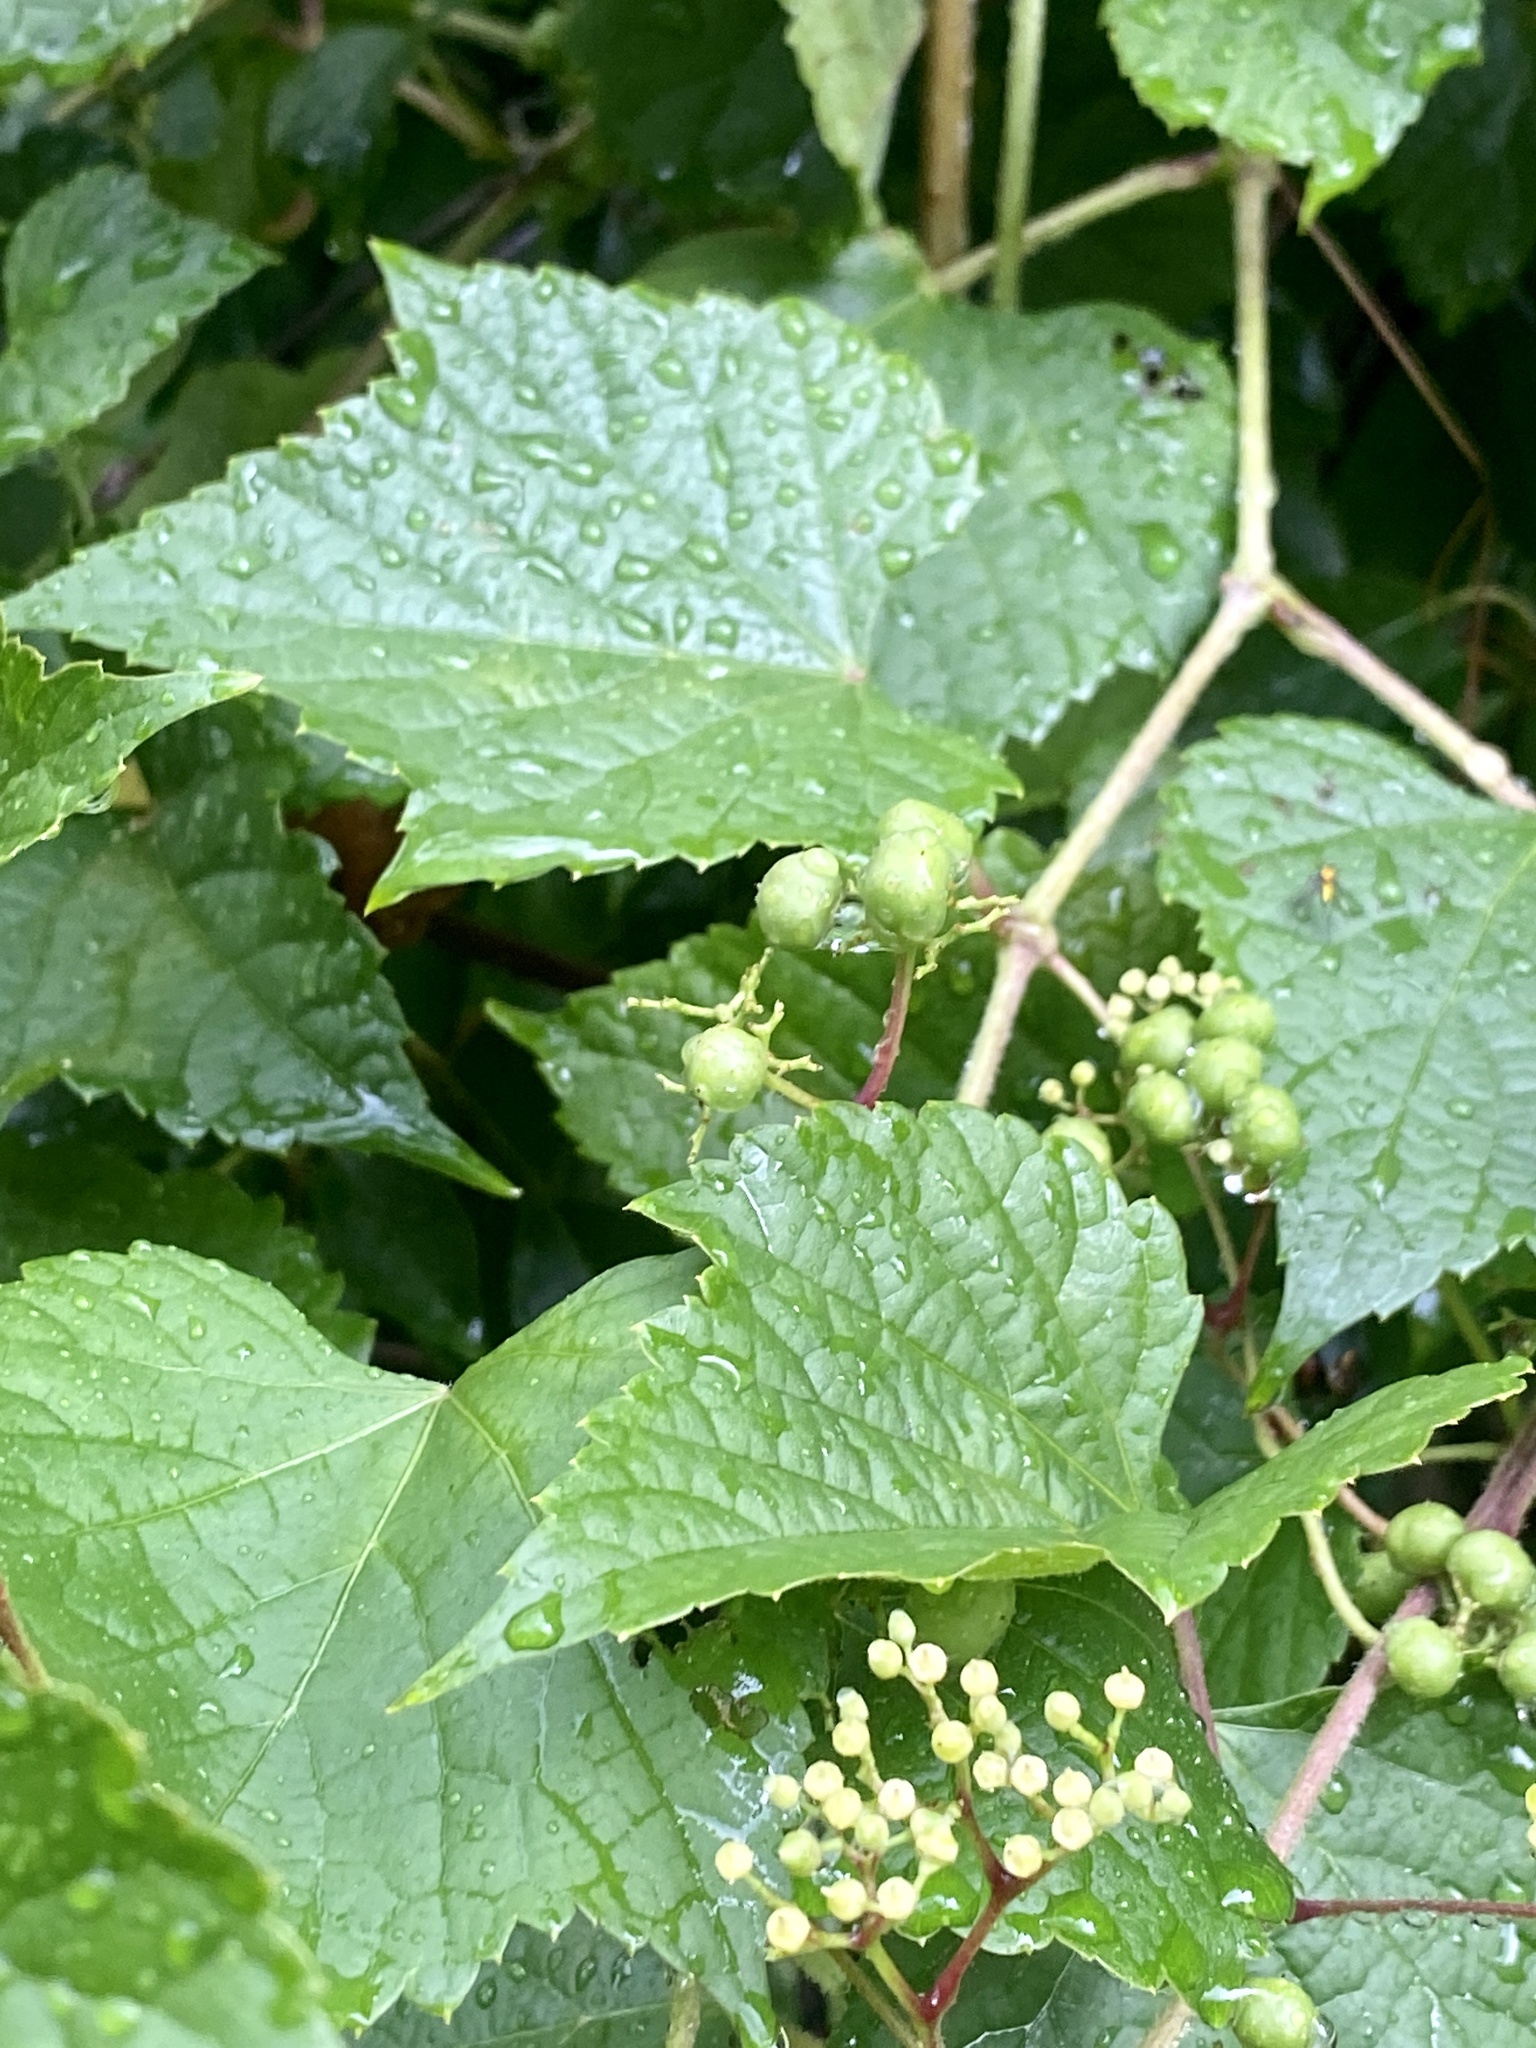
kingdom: Plantae
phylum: Tracheophyta
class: Magnoliopsida
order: Vitales
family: Vitaceae
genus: Ampelopsis
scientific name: Ampelopsis glandulosa
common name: Amur peppervine
